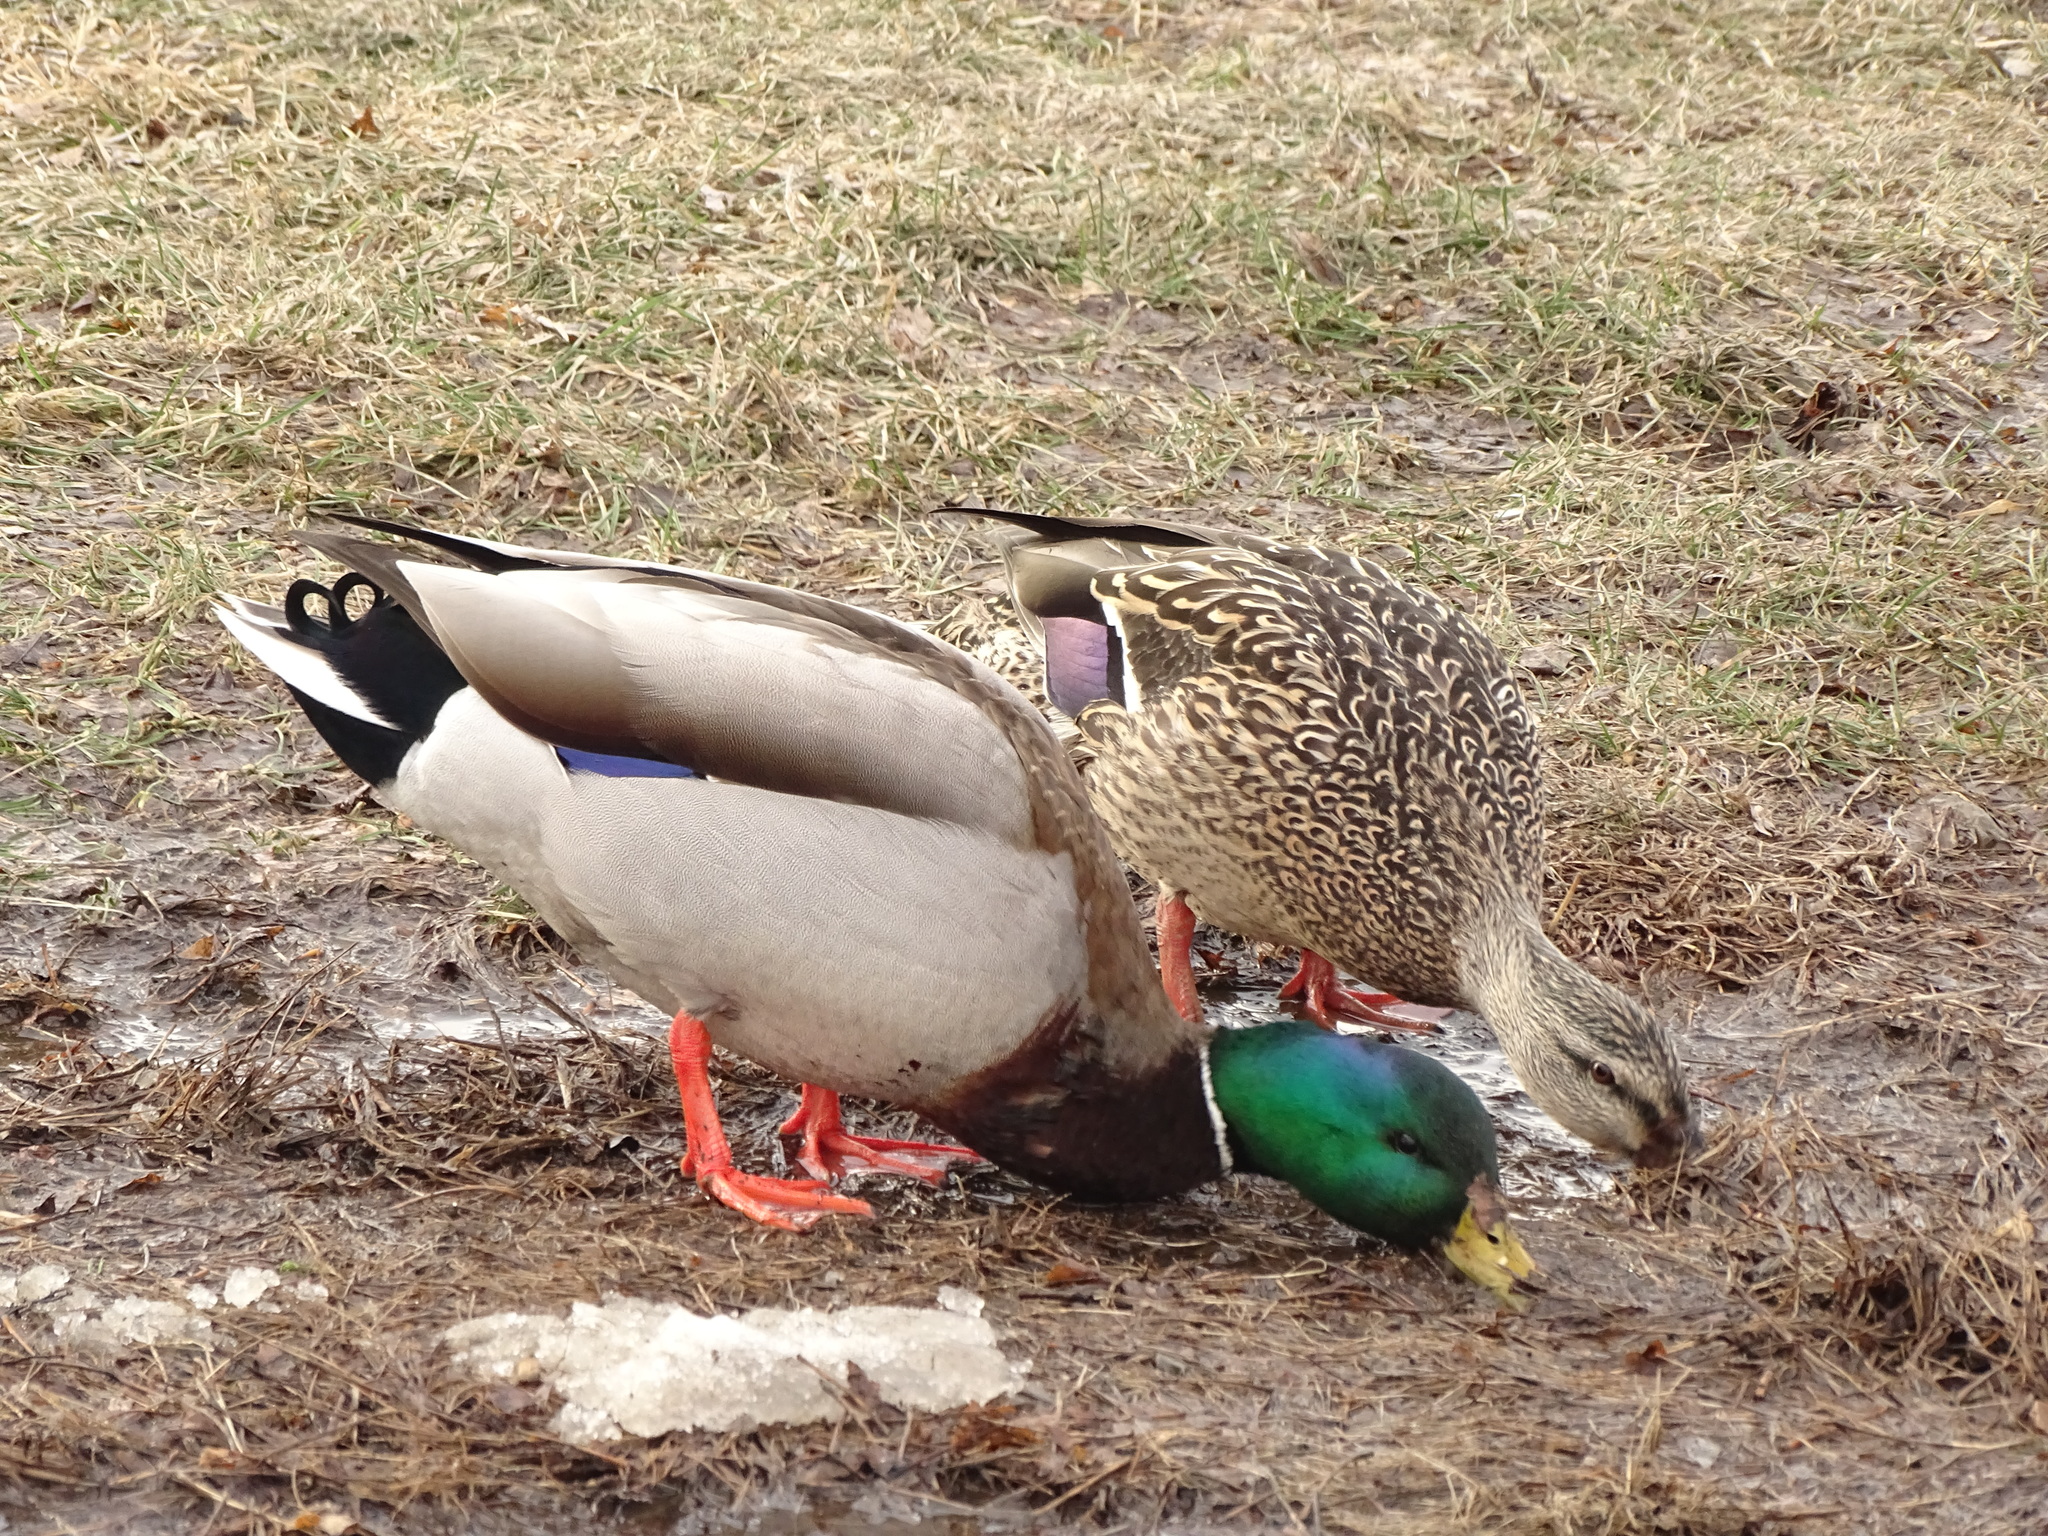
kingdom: Animalia
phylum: Chordata
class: Aves
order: Anseriformes
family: Anatidae
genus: Anas
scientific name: Anas platyrhynchos
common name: Mallard
